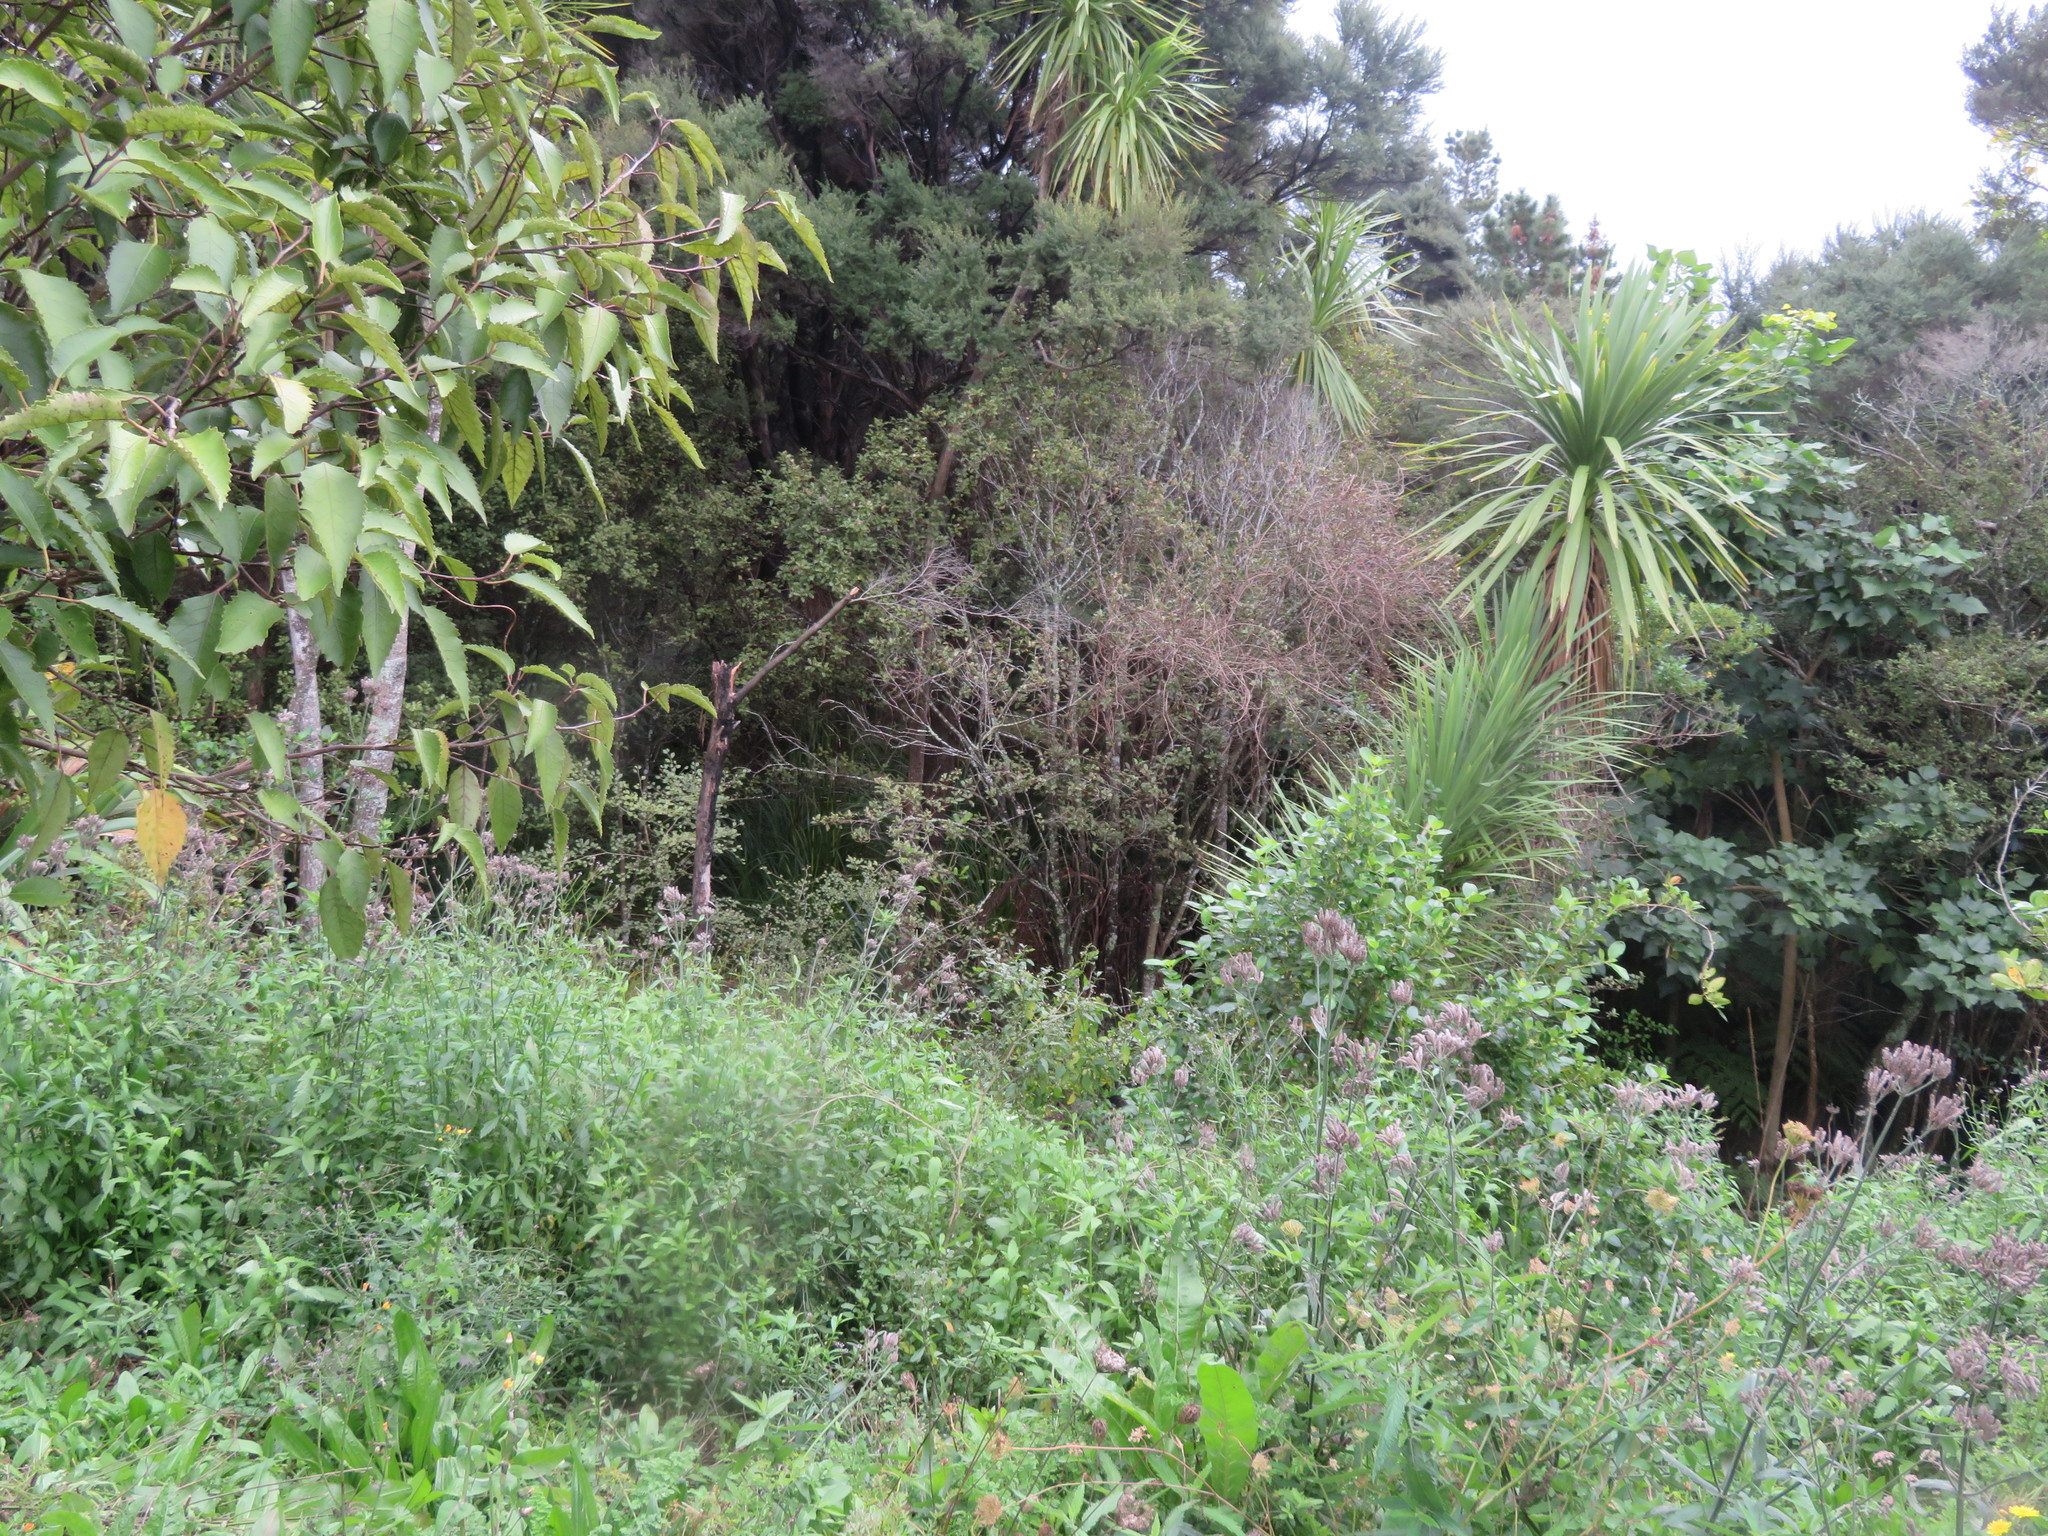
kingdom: Plantae
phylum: Tracheophyta
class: Magnoliopsida
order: Lamiales
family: Verbenaceae
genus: Verbena
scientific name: Verbena incompta
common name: Purpletop vervain
